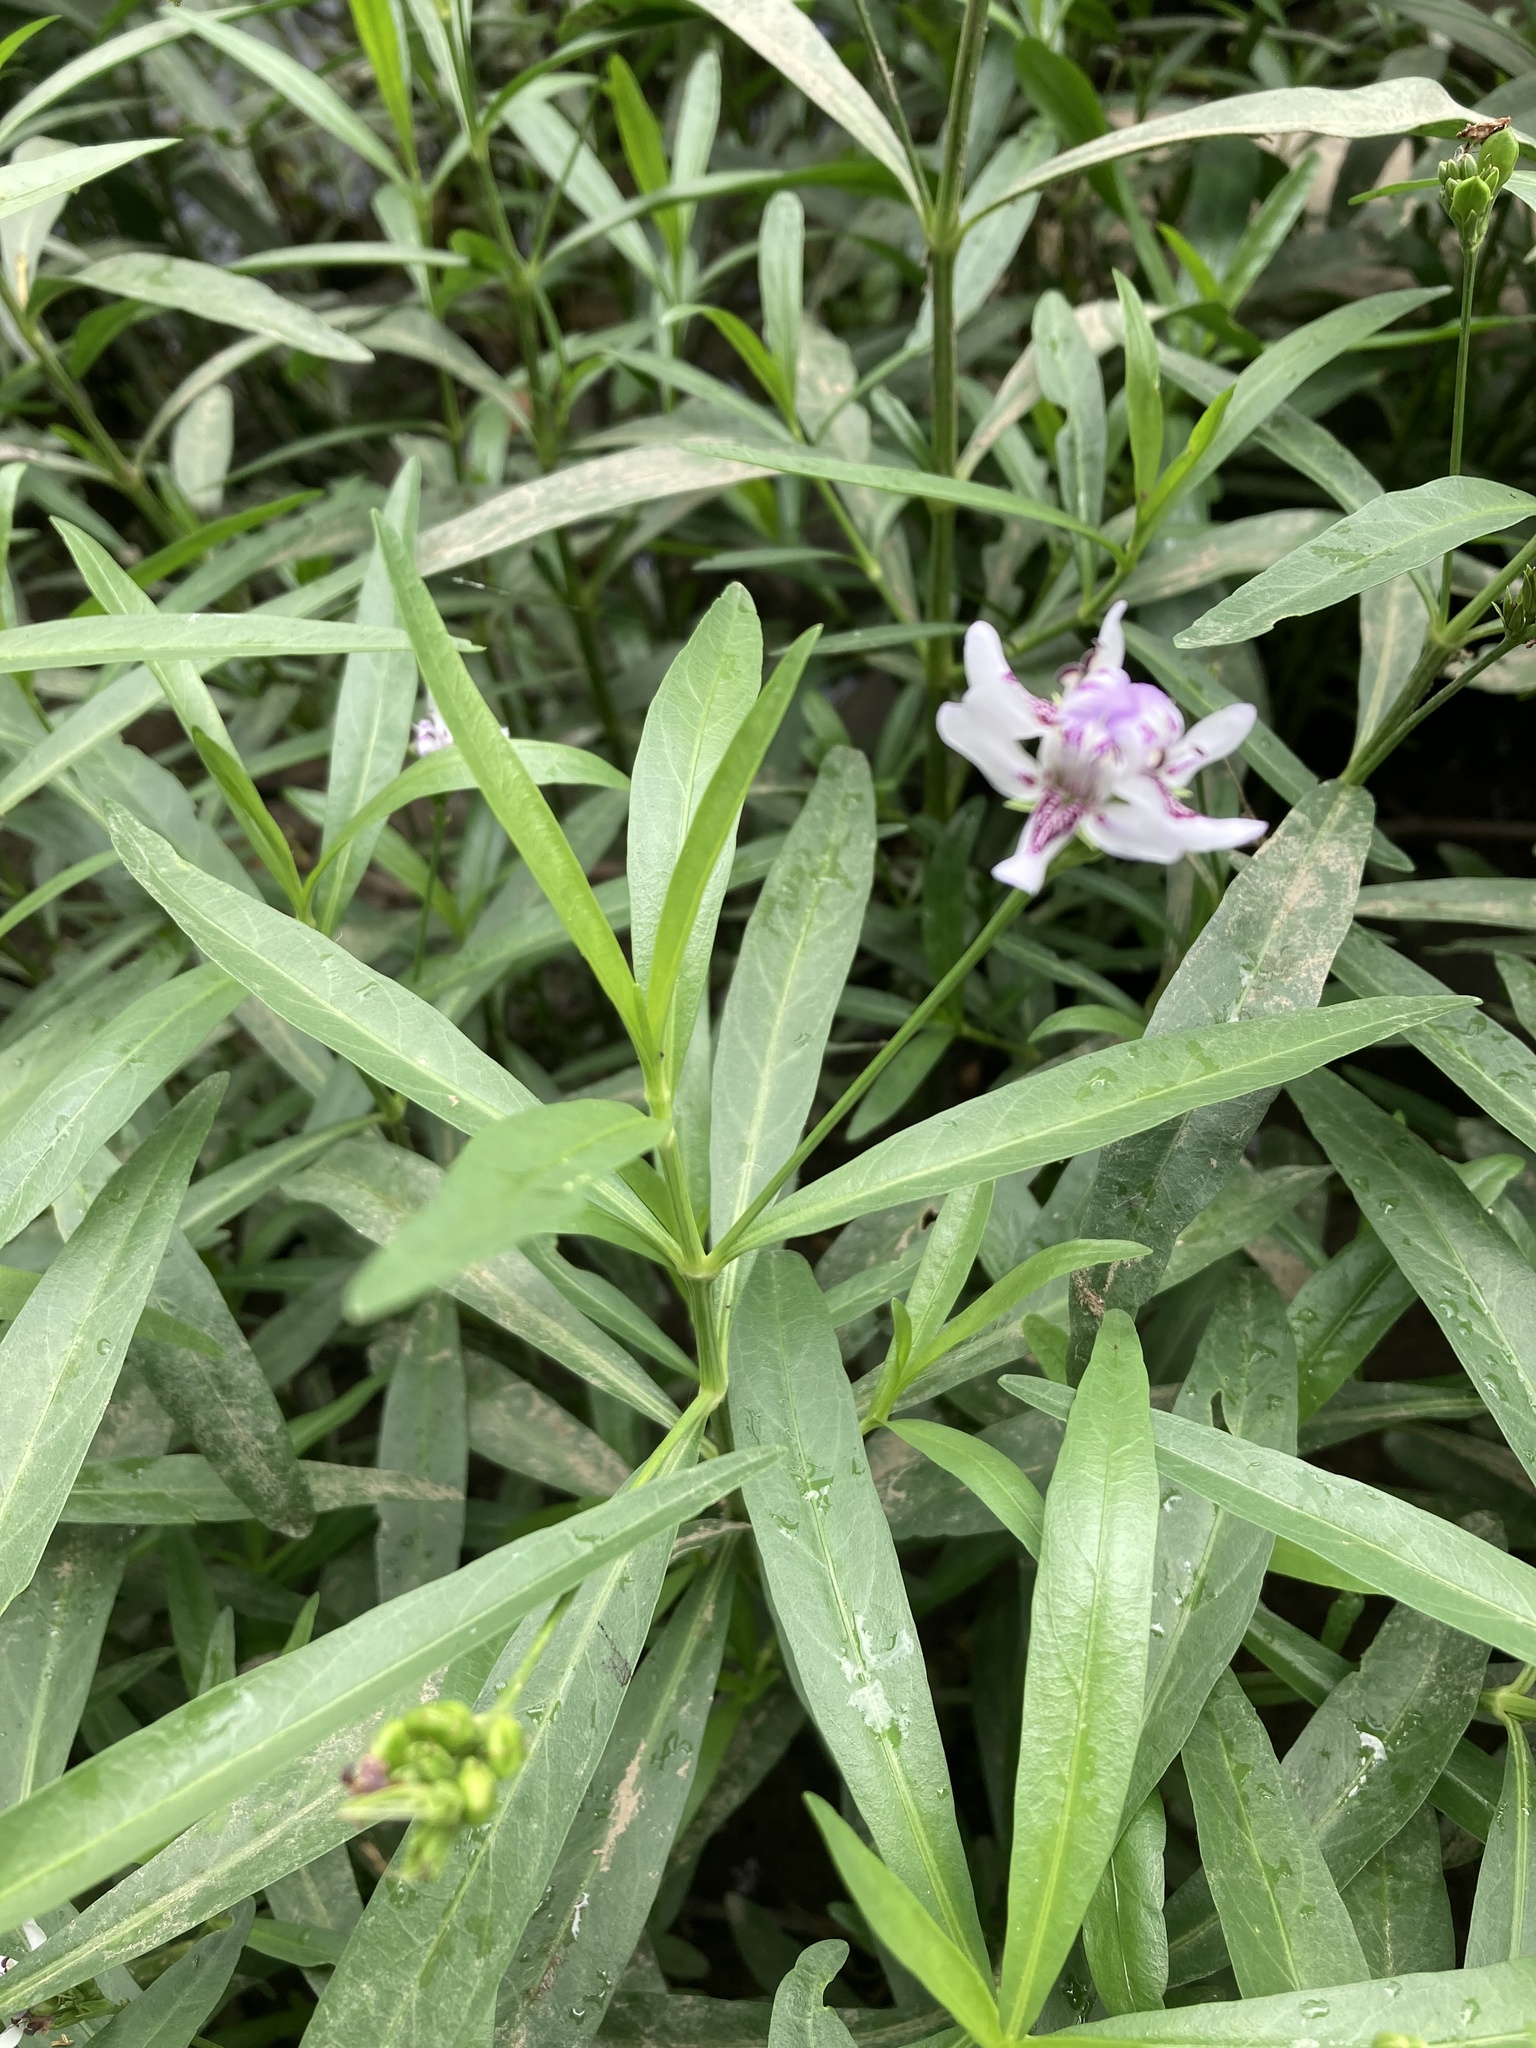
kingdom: Plantae
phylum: Tracheophyta
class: Magnoliopsida
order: Lamiales
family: Acanthaceae
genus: Dianthera
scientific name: Dianthera americana
